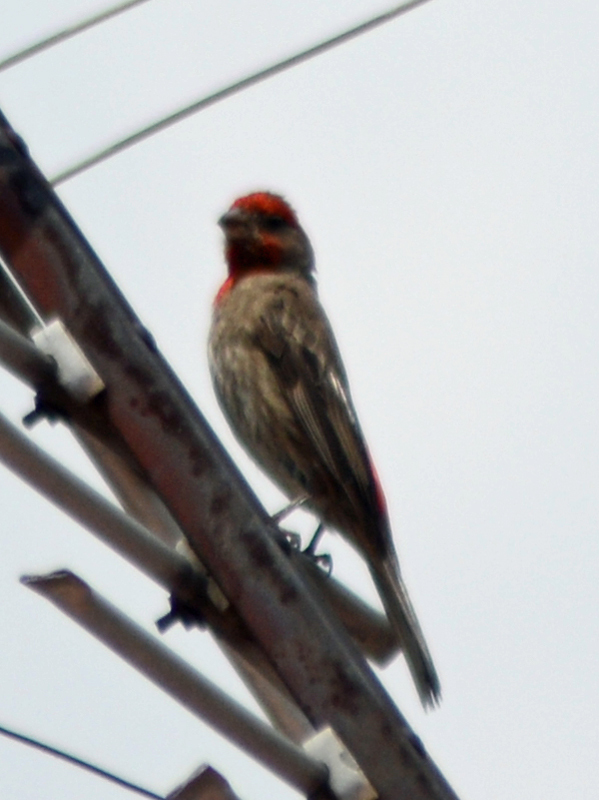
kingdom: Animalia
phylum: Chordata
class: Aves
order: Passeriformes
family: Fringillidae
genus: Haemorhous
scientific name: Haemorhous mexicanus
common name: House finch
